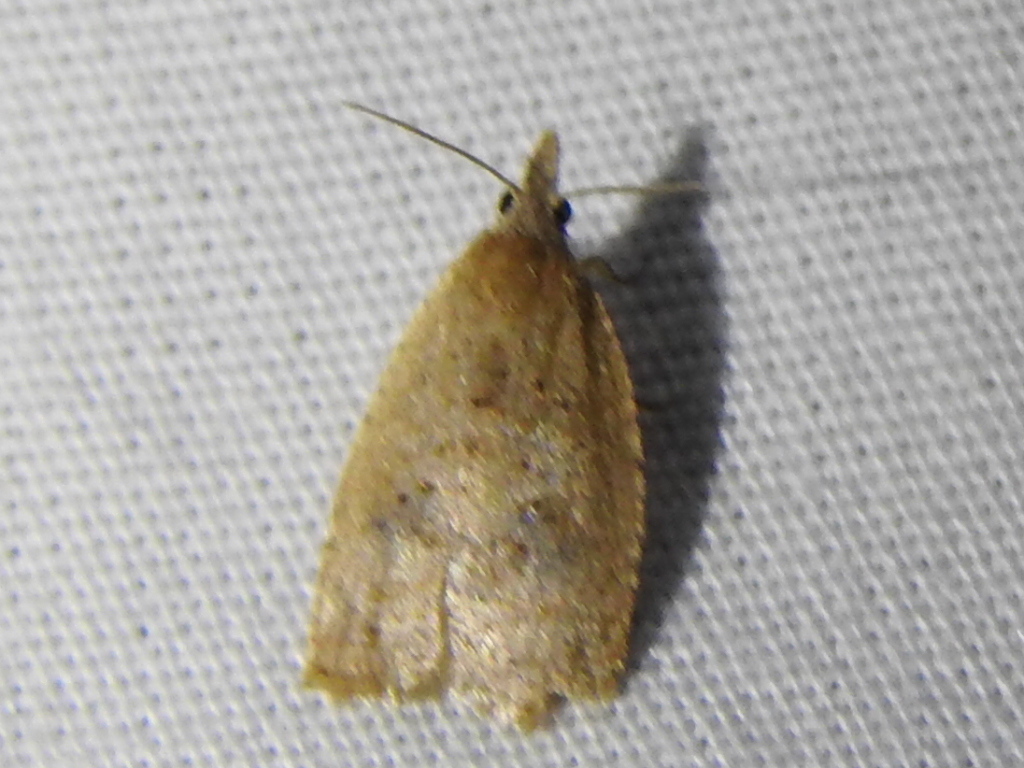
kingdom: Animalia
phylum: Arthropoda
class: Insecta
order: Lepidoptera
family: Tortricidae
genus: Sparganothoides
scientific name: Sparganothoides lentiginosana
